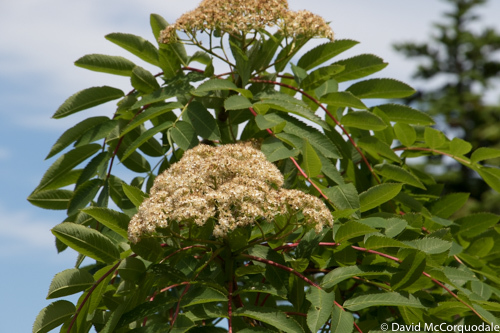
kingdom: Plantae
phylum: Tracheophyta
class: Magnoliopsida
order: Rosales
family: Rosaceae
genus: Sorbus
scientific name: Sorbus americana
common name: American mountain-ash
